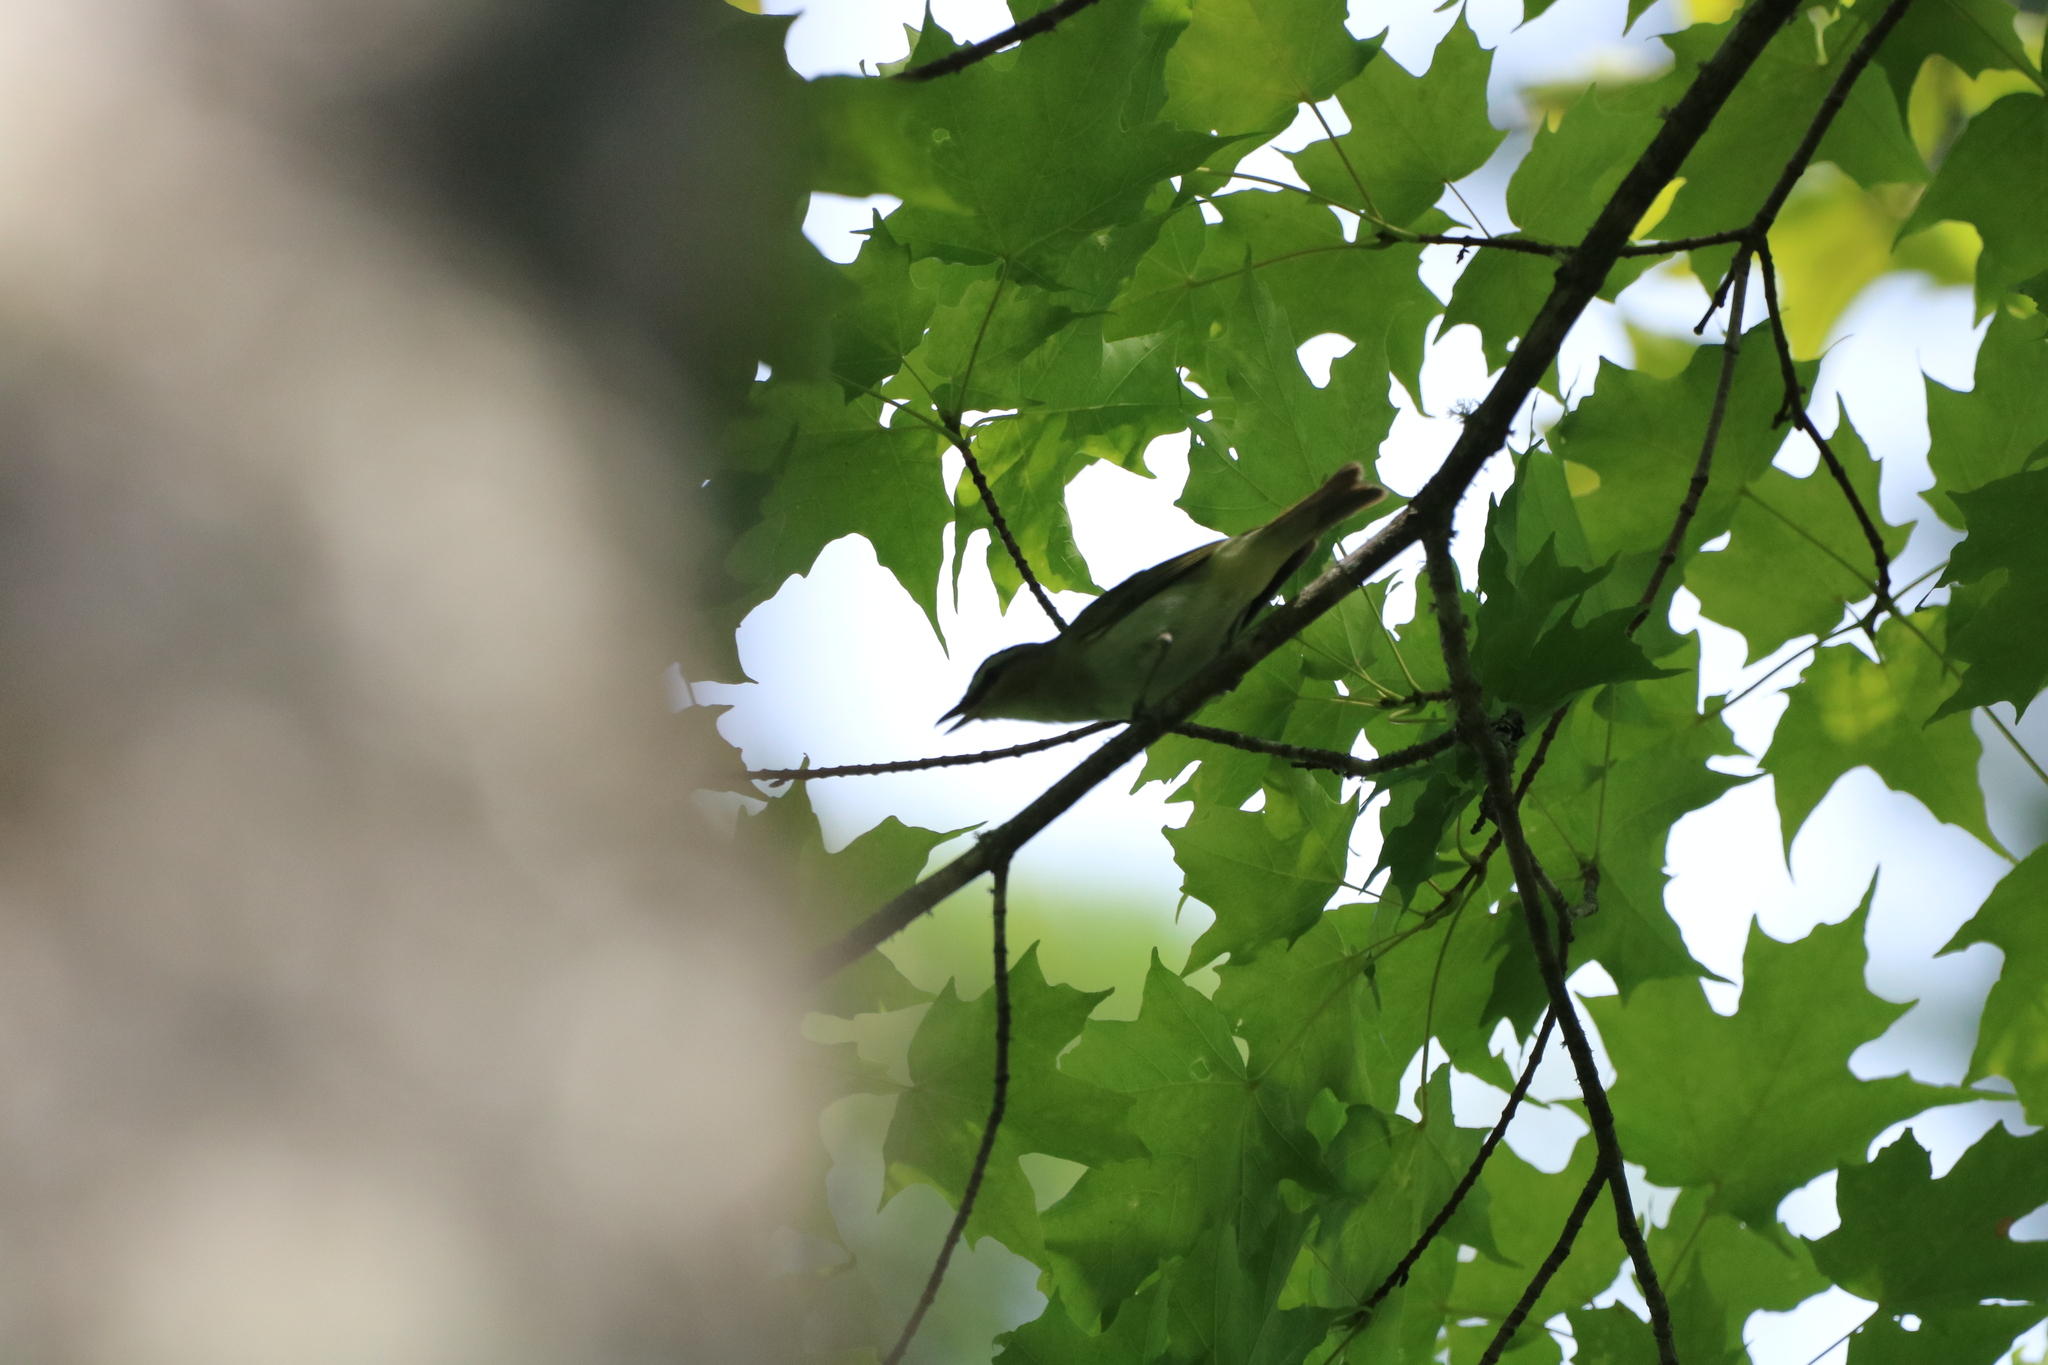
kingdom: Animalia
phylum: Chordata
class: Aves
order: Passeriformes
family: Vireonidae
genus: Vireo
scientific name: Vireo olivaceus
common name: Red-eyed vireo
